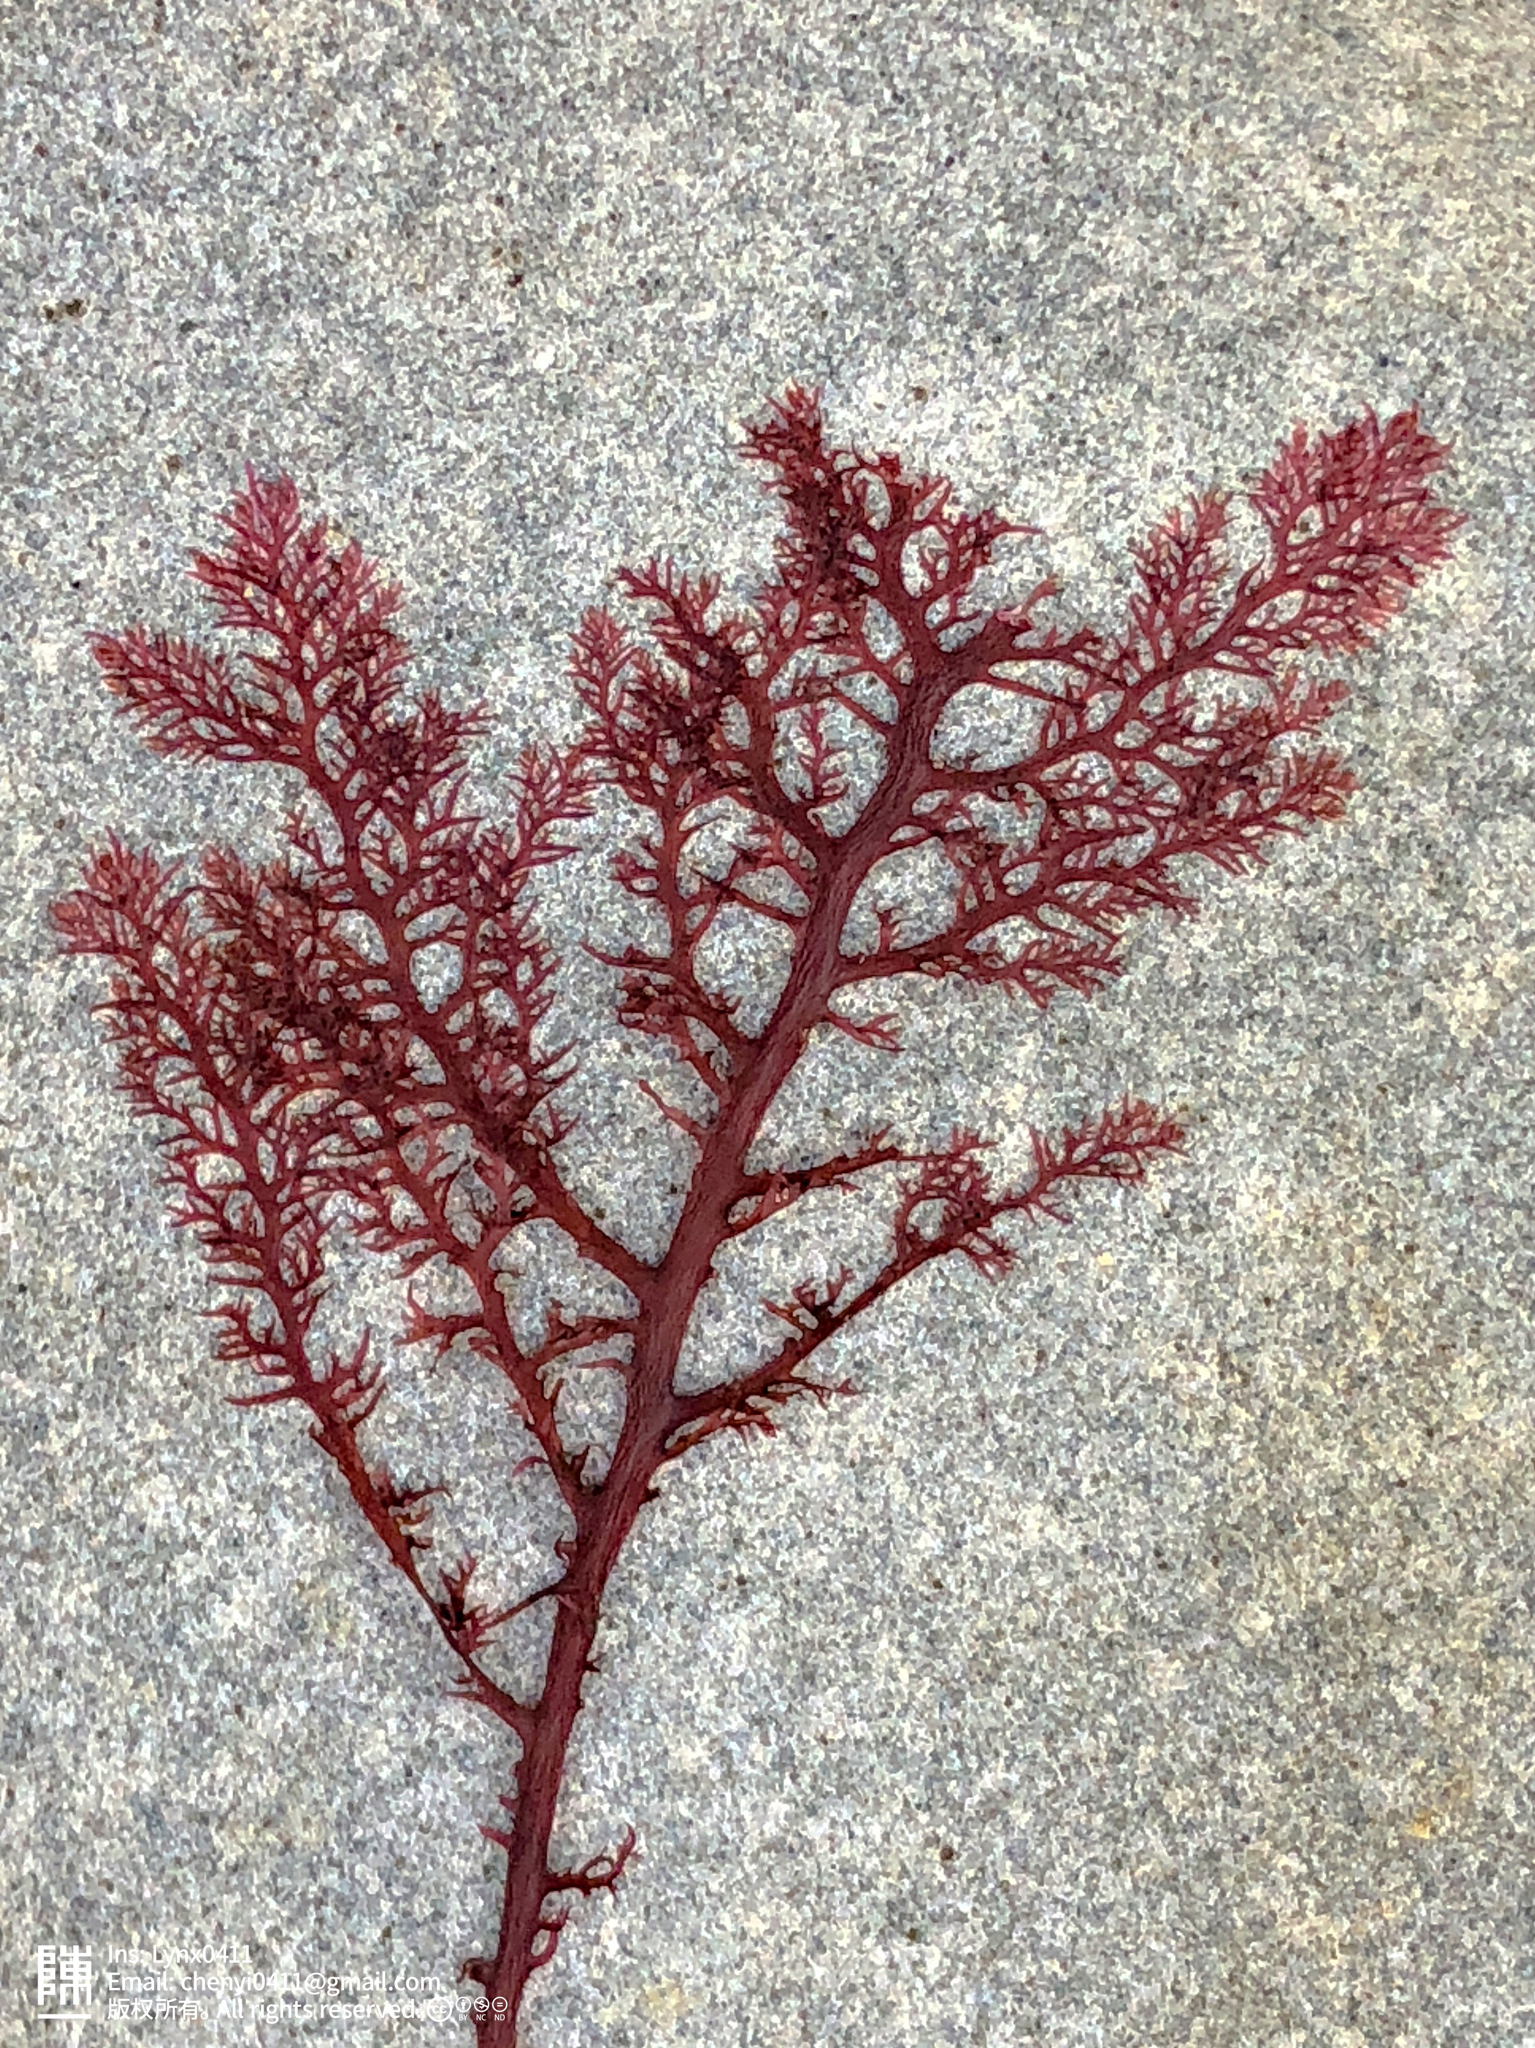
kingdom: Plantae
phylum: Rhodophyta
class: Florideophyceae
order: Plocamiales
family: Plocamiaceae
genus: Plocamium
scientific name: Plocamium cartilagineum
